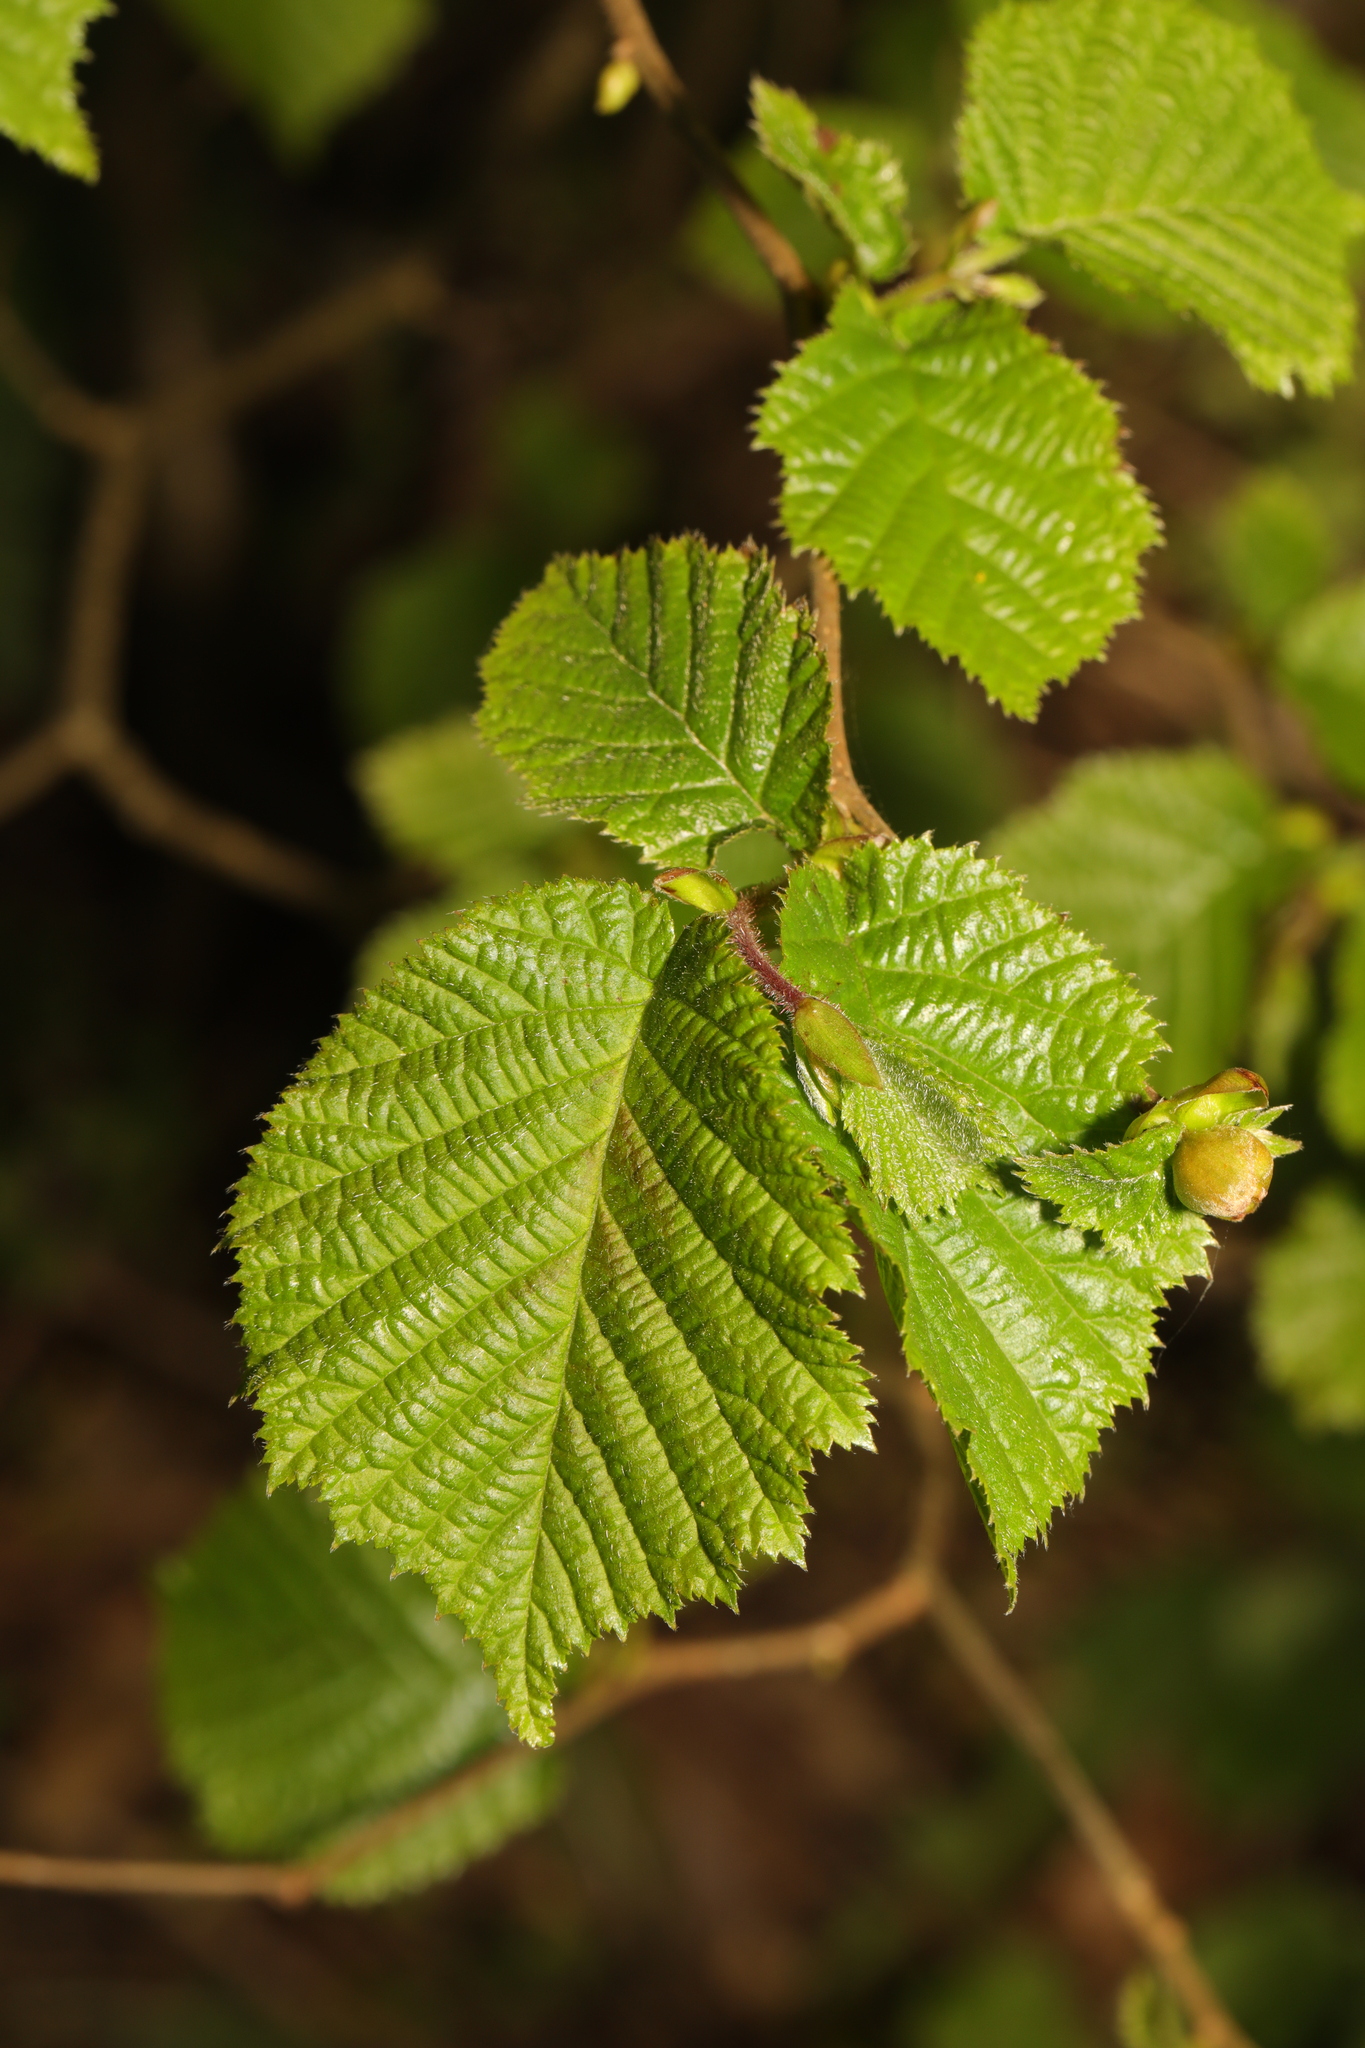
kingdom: Plantae
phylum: Tracheophyta
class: Magnoliopsida
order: Fagales
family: Betulaceae
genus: Corylus
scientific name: Corylus avellana
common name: European hazel
